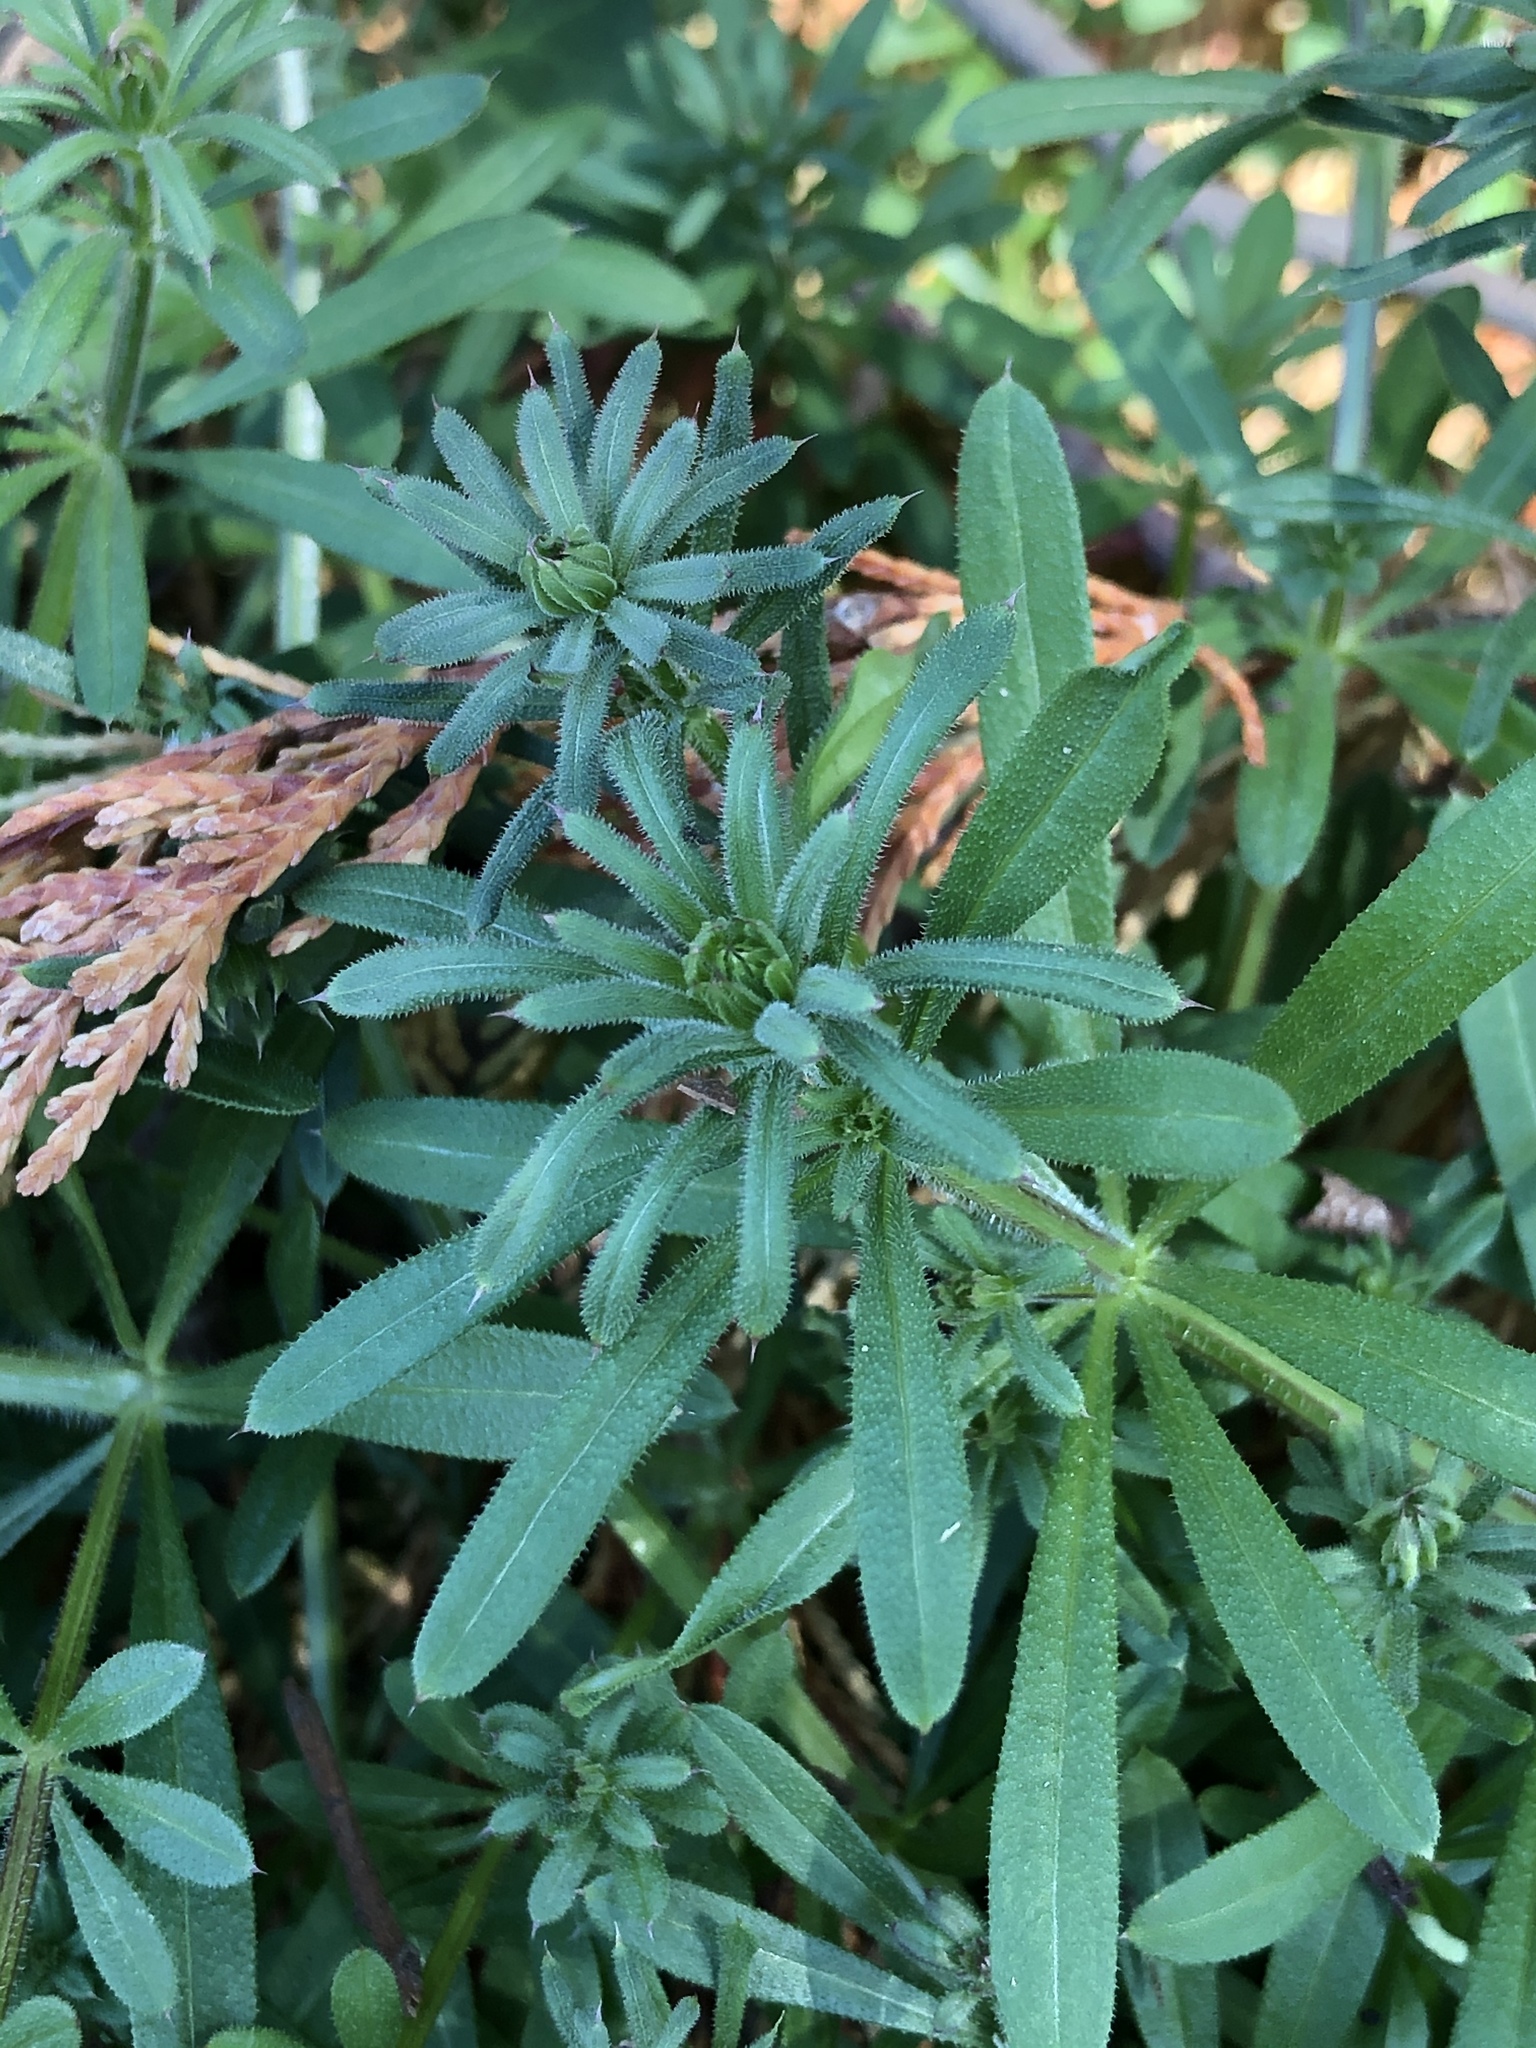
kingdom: Plantae
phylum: Tracheophyta
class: Magnoliopsida
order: Gentianales
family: Rubiaceae
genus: Galium
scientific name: Galium aparine
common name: Cleavers
